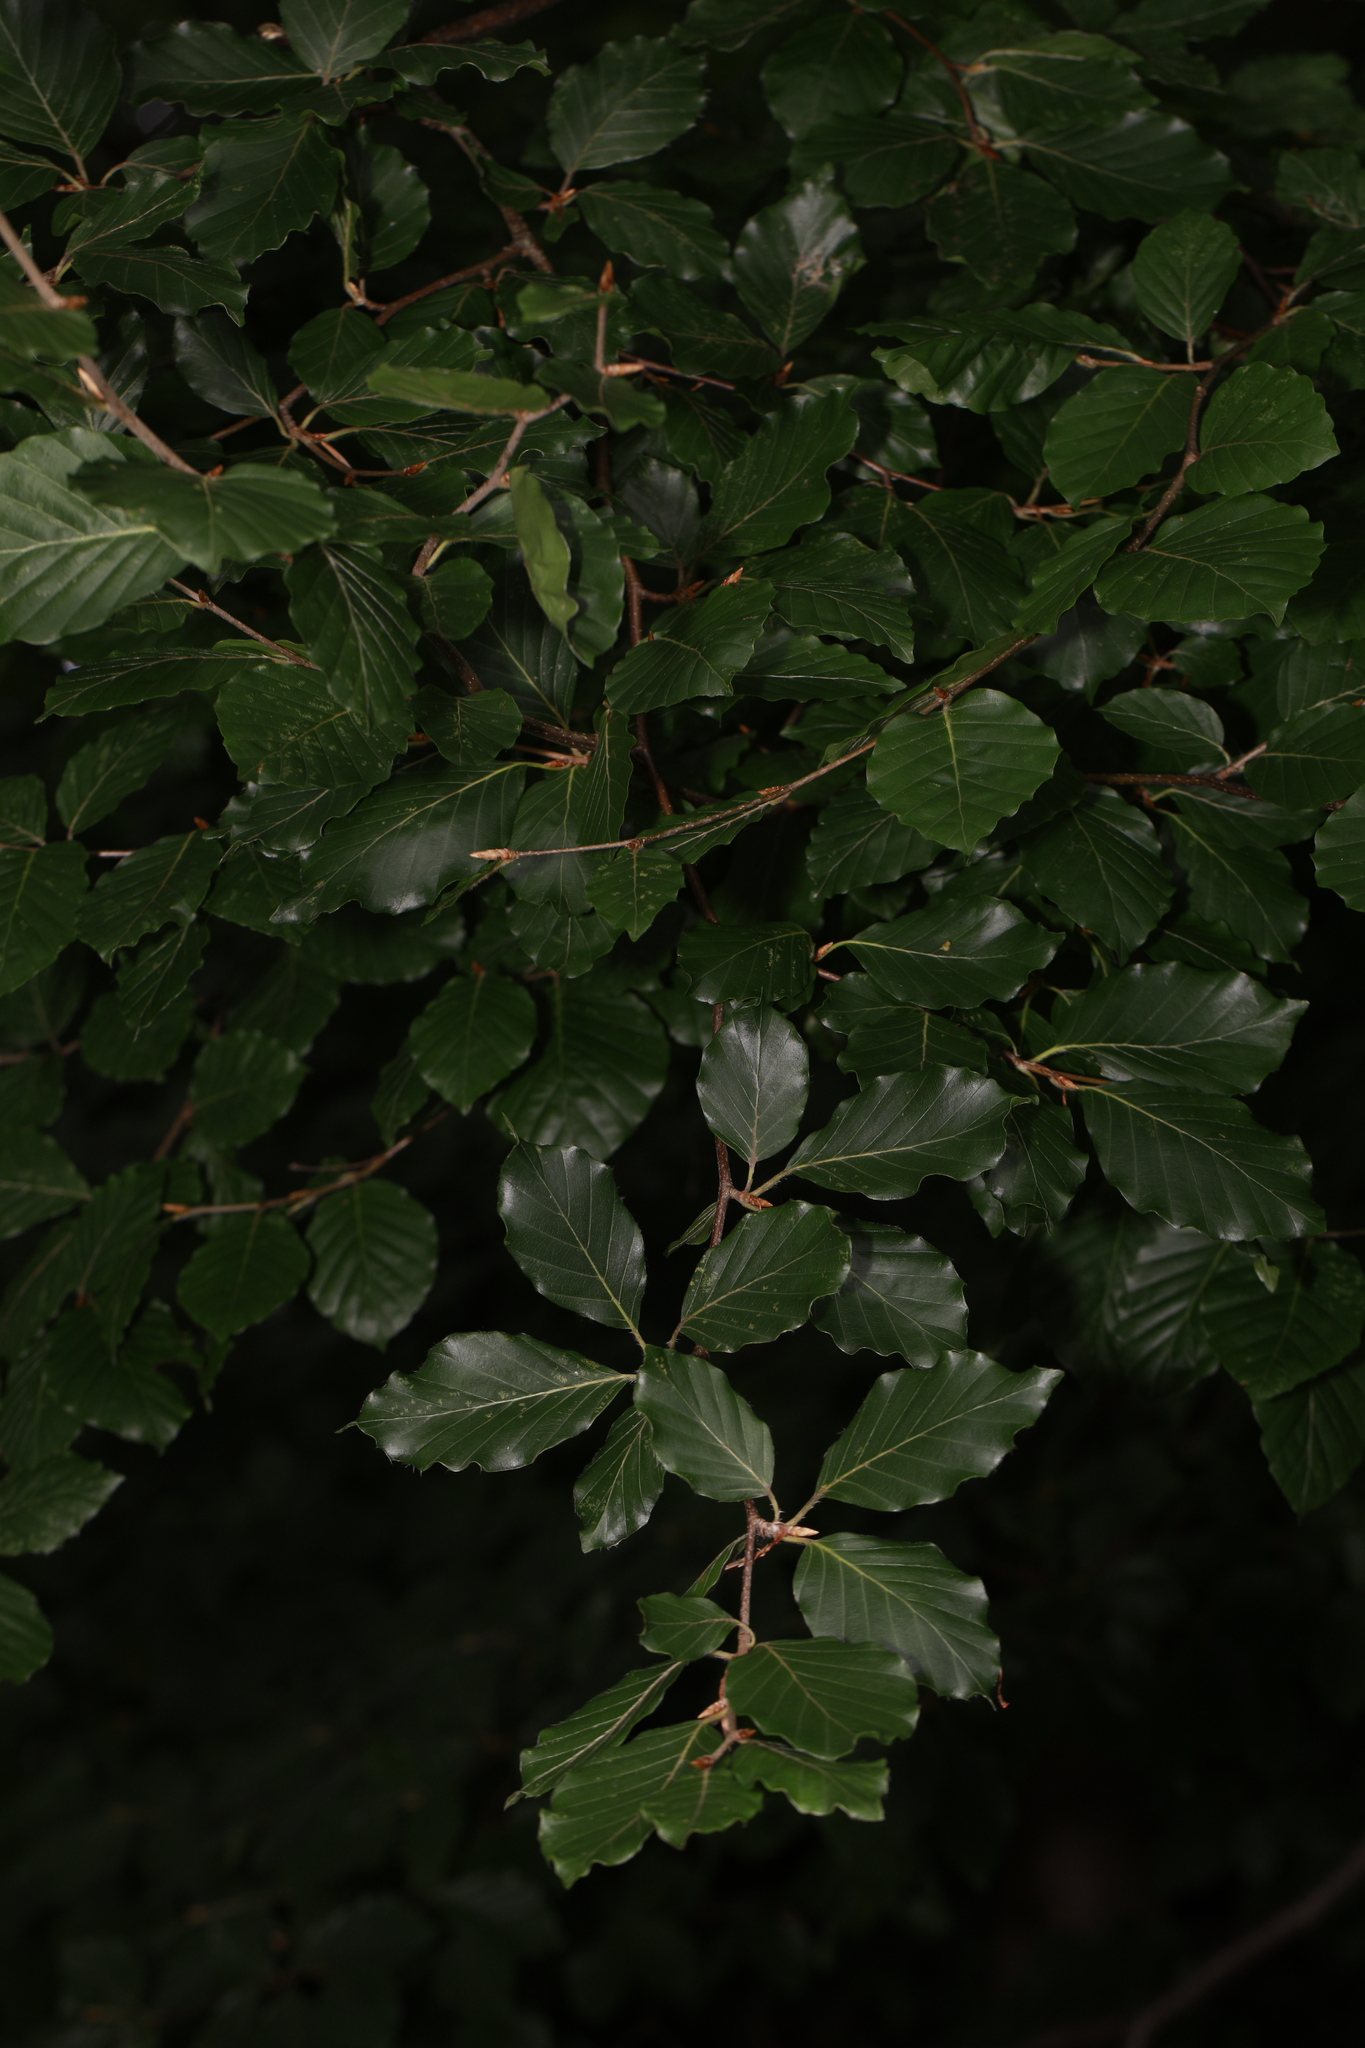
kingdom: Plantae
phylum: Tracheophyta
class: Magnoliopsida
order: Fagales
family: Fagaceae
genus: Fagus
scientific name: Fagus sylvatica
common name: Beech
